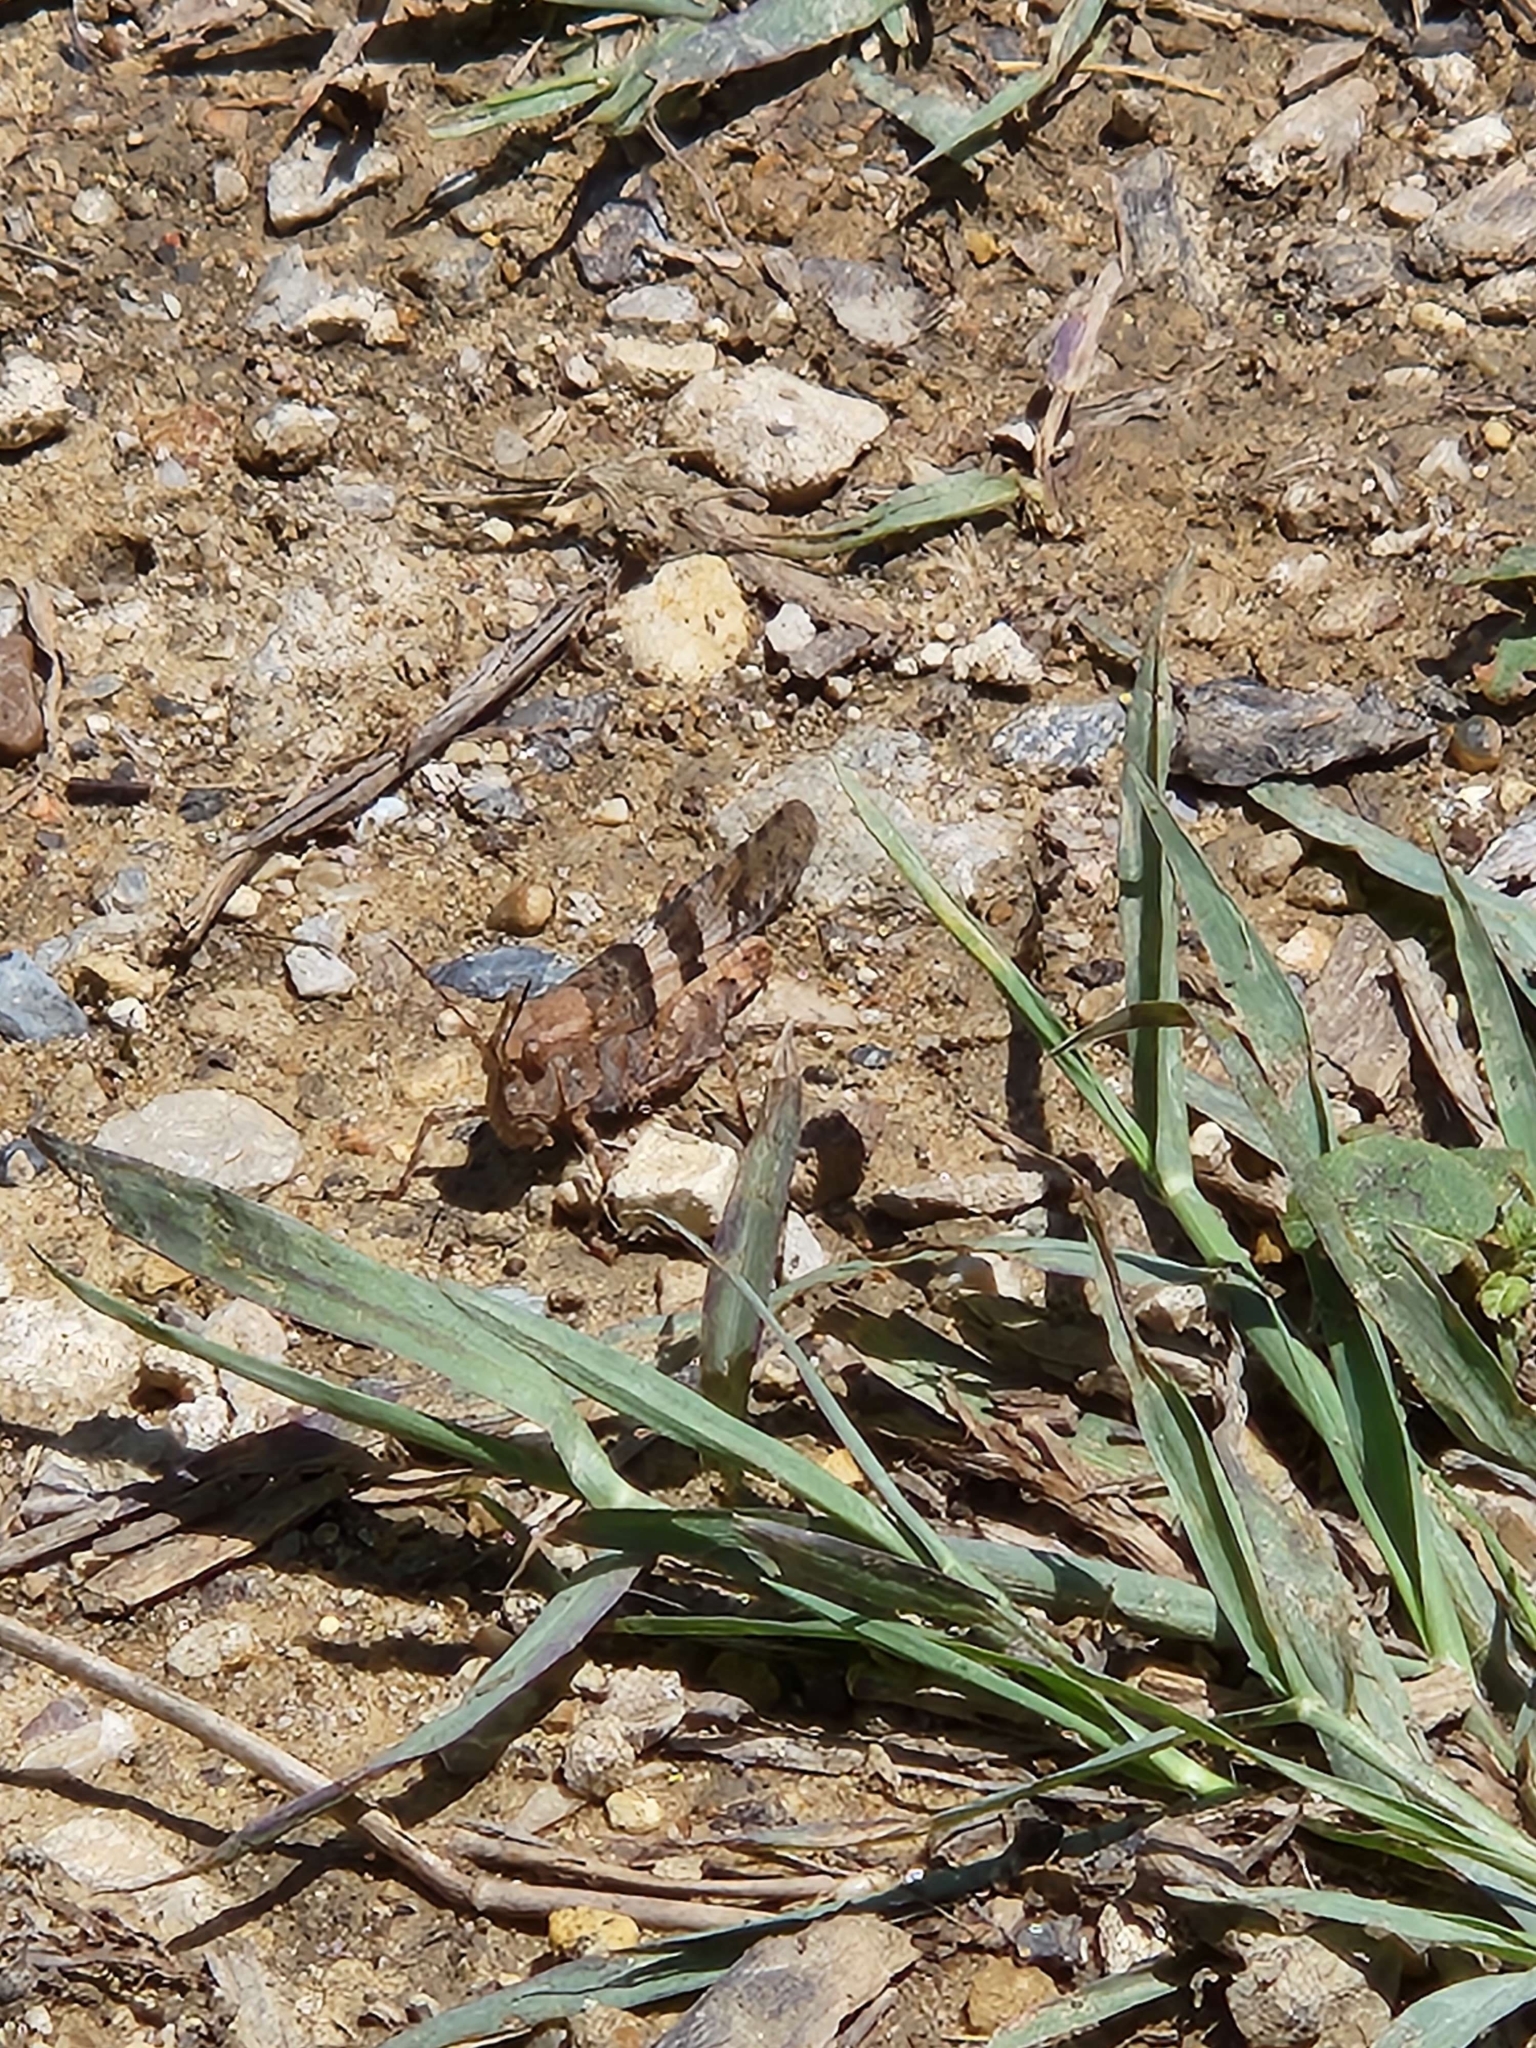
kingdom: Animalia
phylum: Arthropoda
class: Insecta
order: Orthoptera
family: Acrididae
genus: Trimerotropis
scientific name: Trimerotropis pallidipennis
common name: Pallid-winged grasshopper
